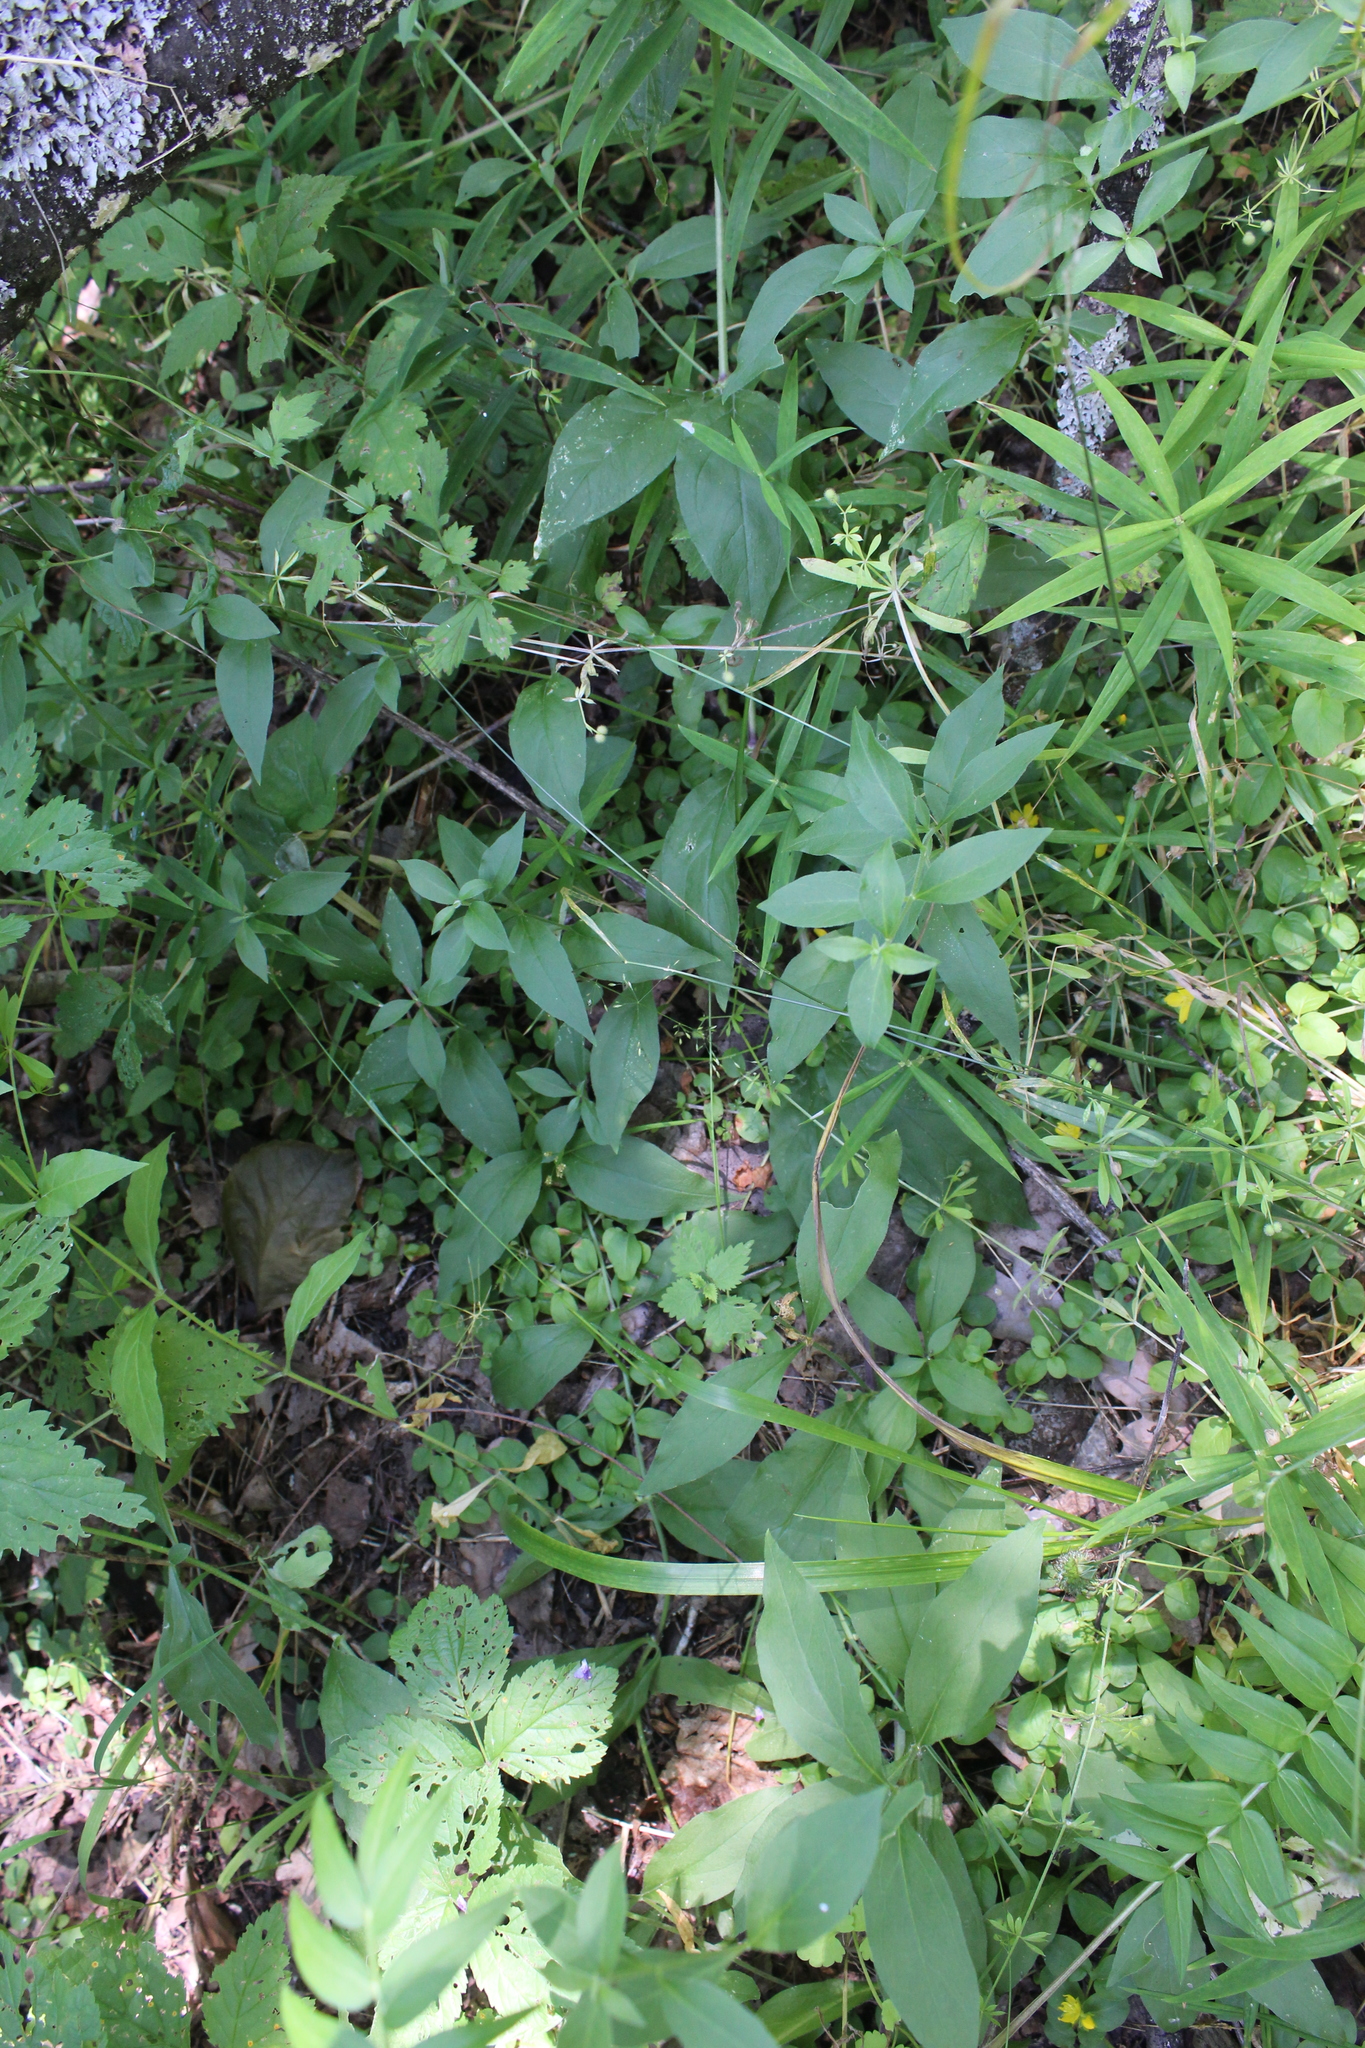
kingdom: Plantae
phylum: Tracheophyta
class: Magnoliopsida
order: Caryophyllales
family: Caryophyllaceae
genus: Silene
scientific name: Silene baccifera
